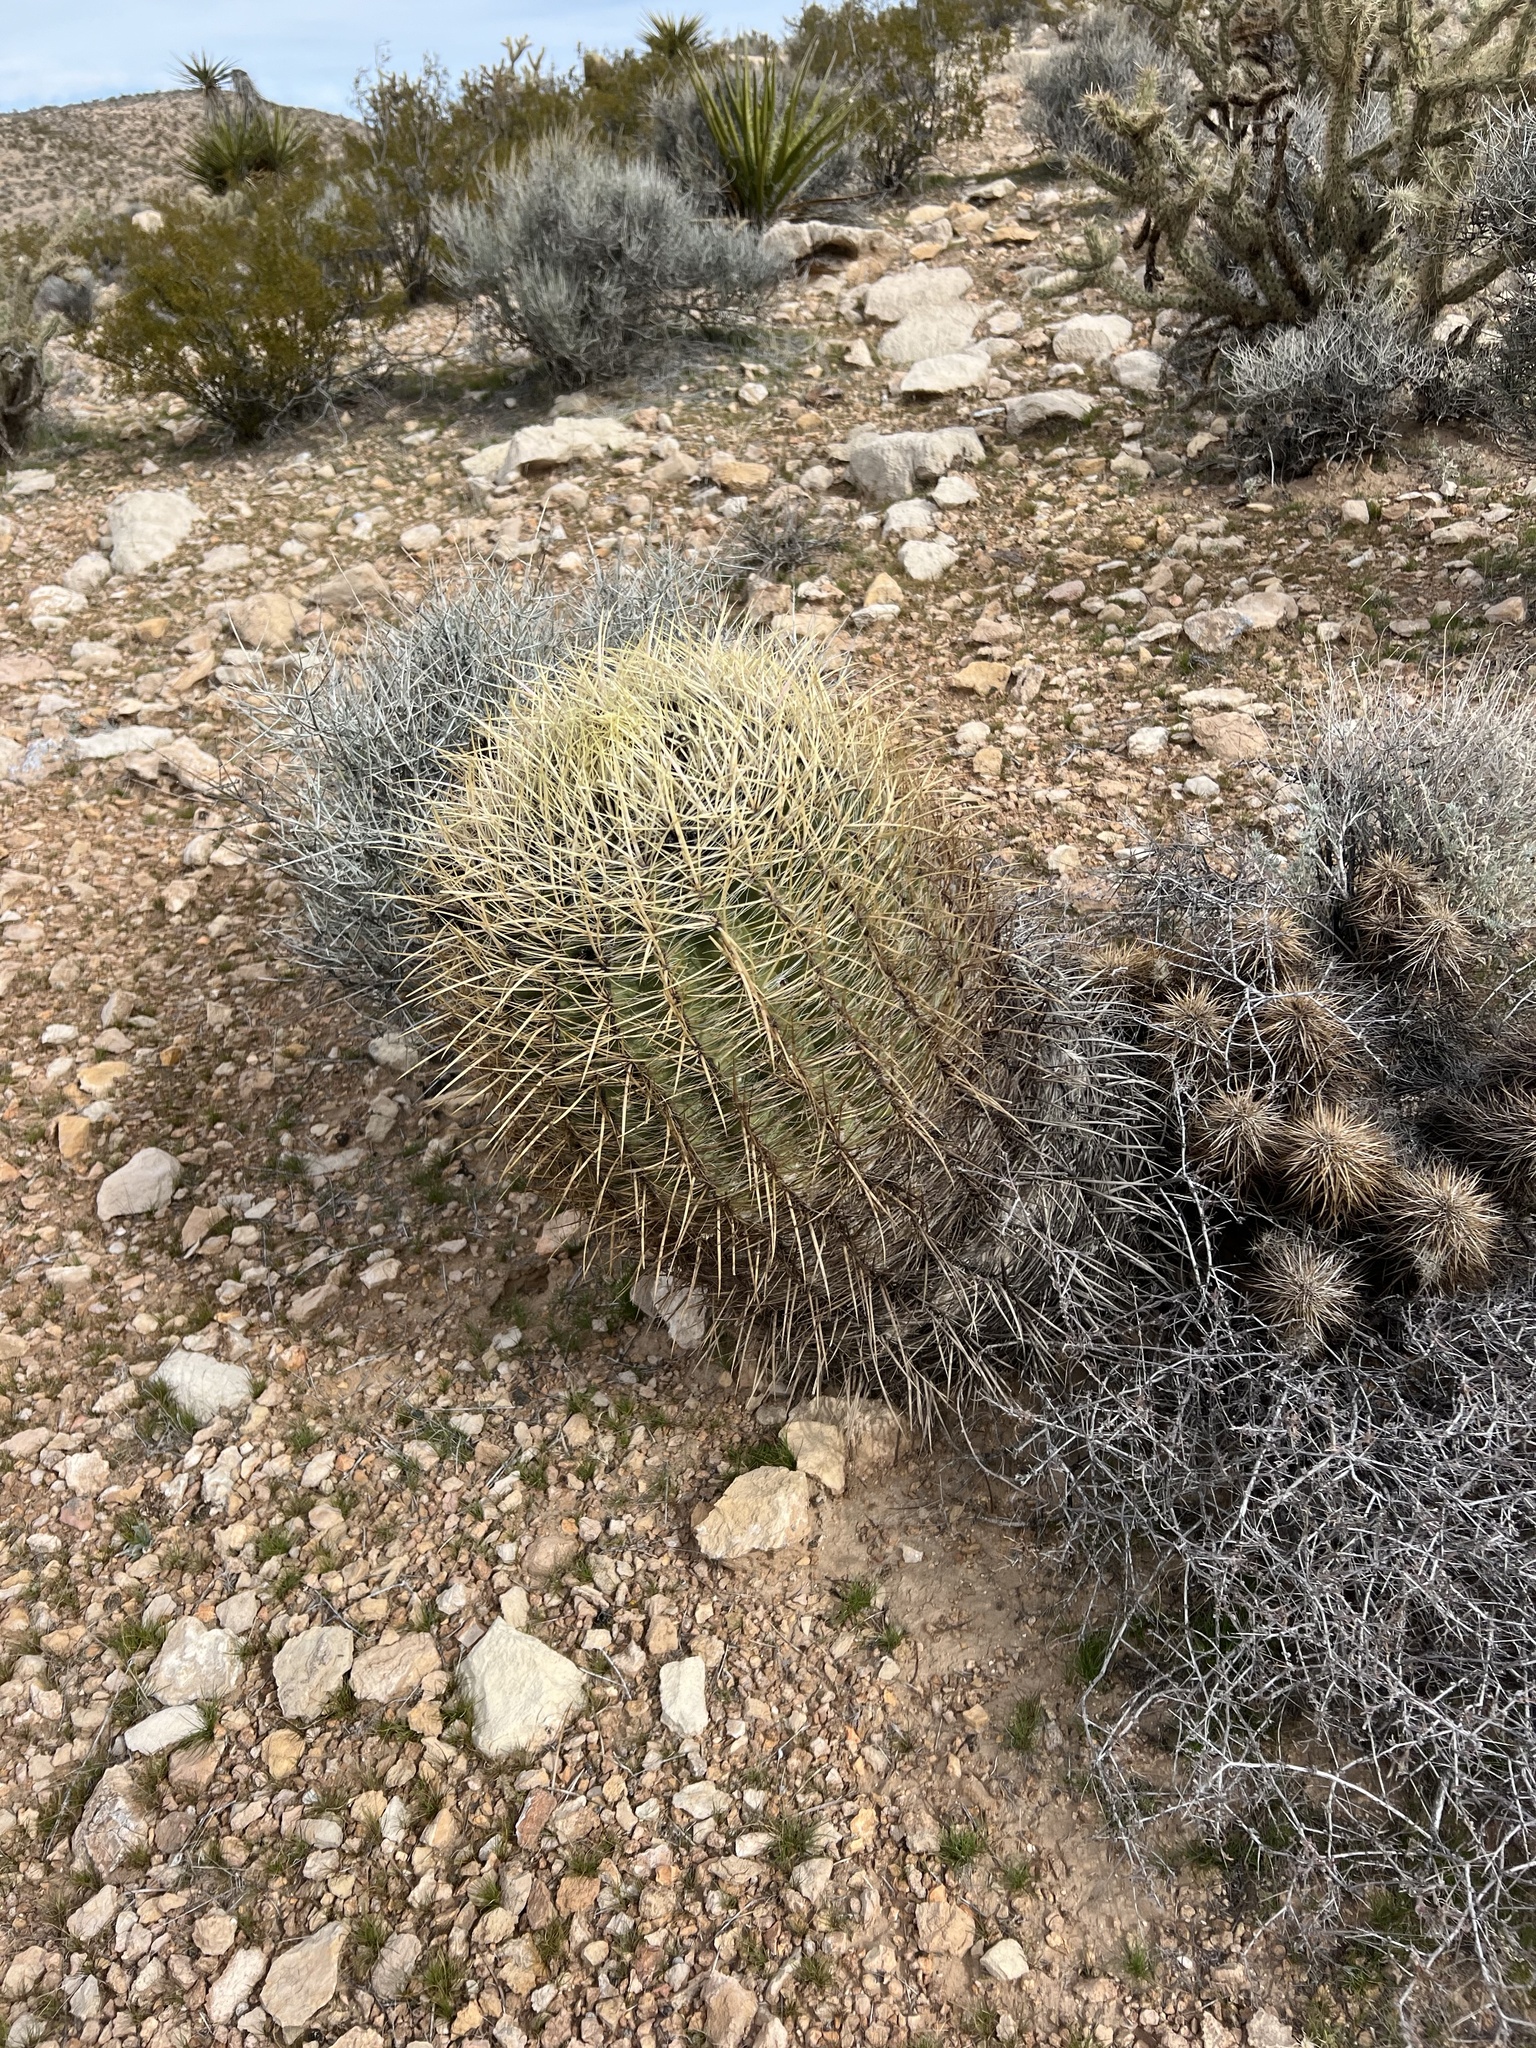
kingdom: Plantae
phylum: Tracheophyta
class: Magnoliopsida
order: Caryophyllales
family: Cactaceae
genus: Ferocactus
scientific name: Ferocactus cylindraceus
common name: California barrel cactus
